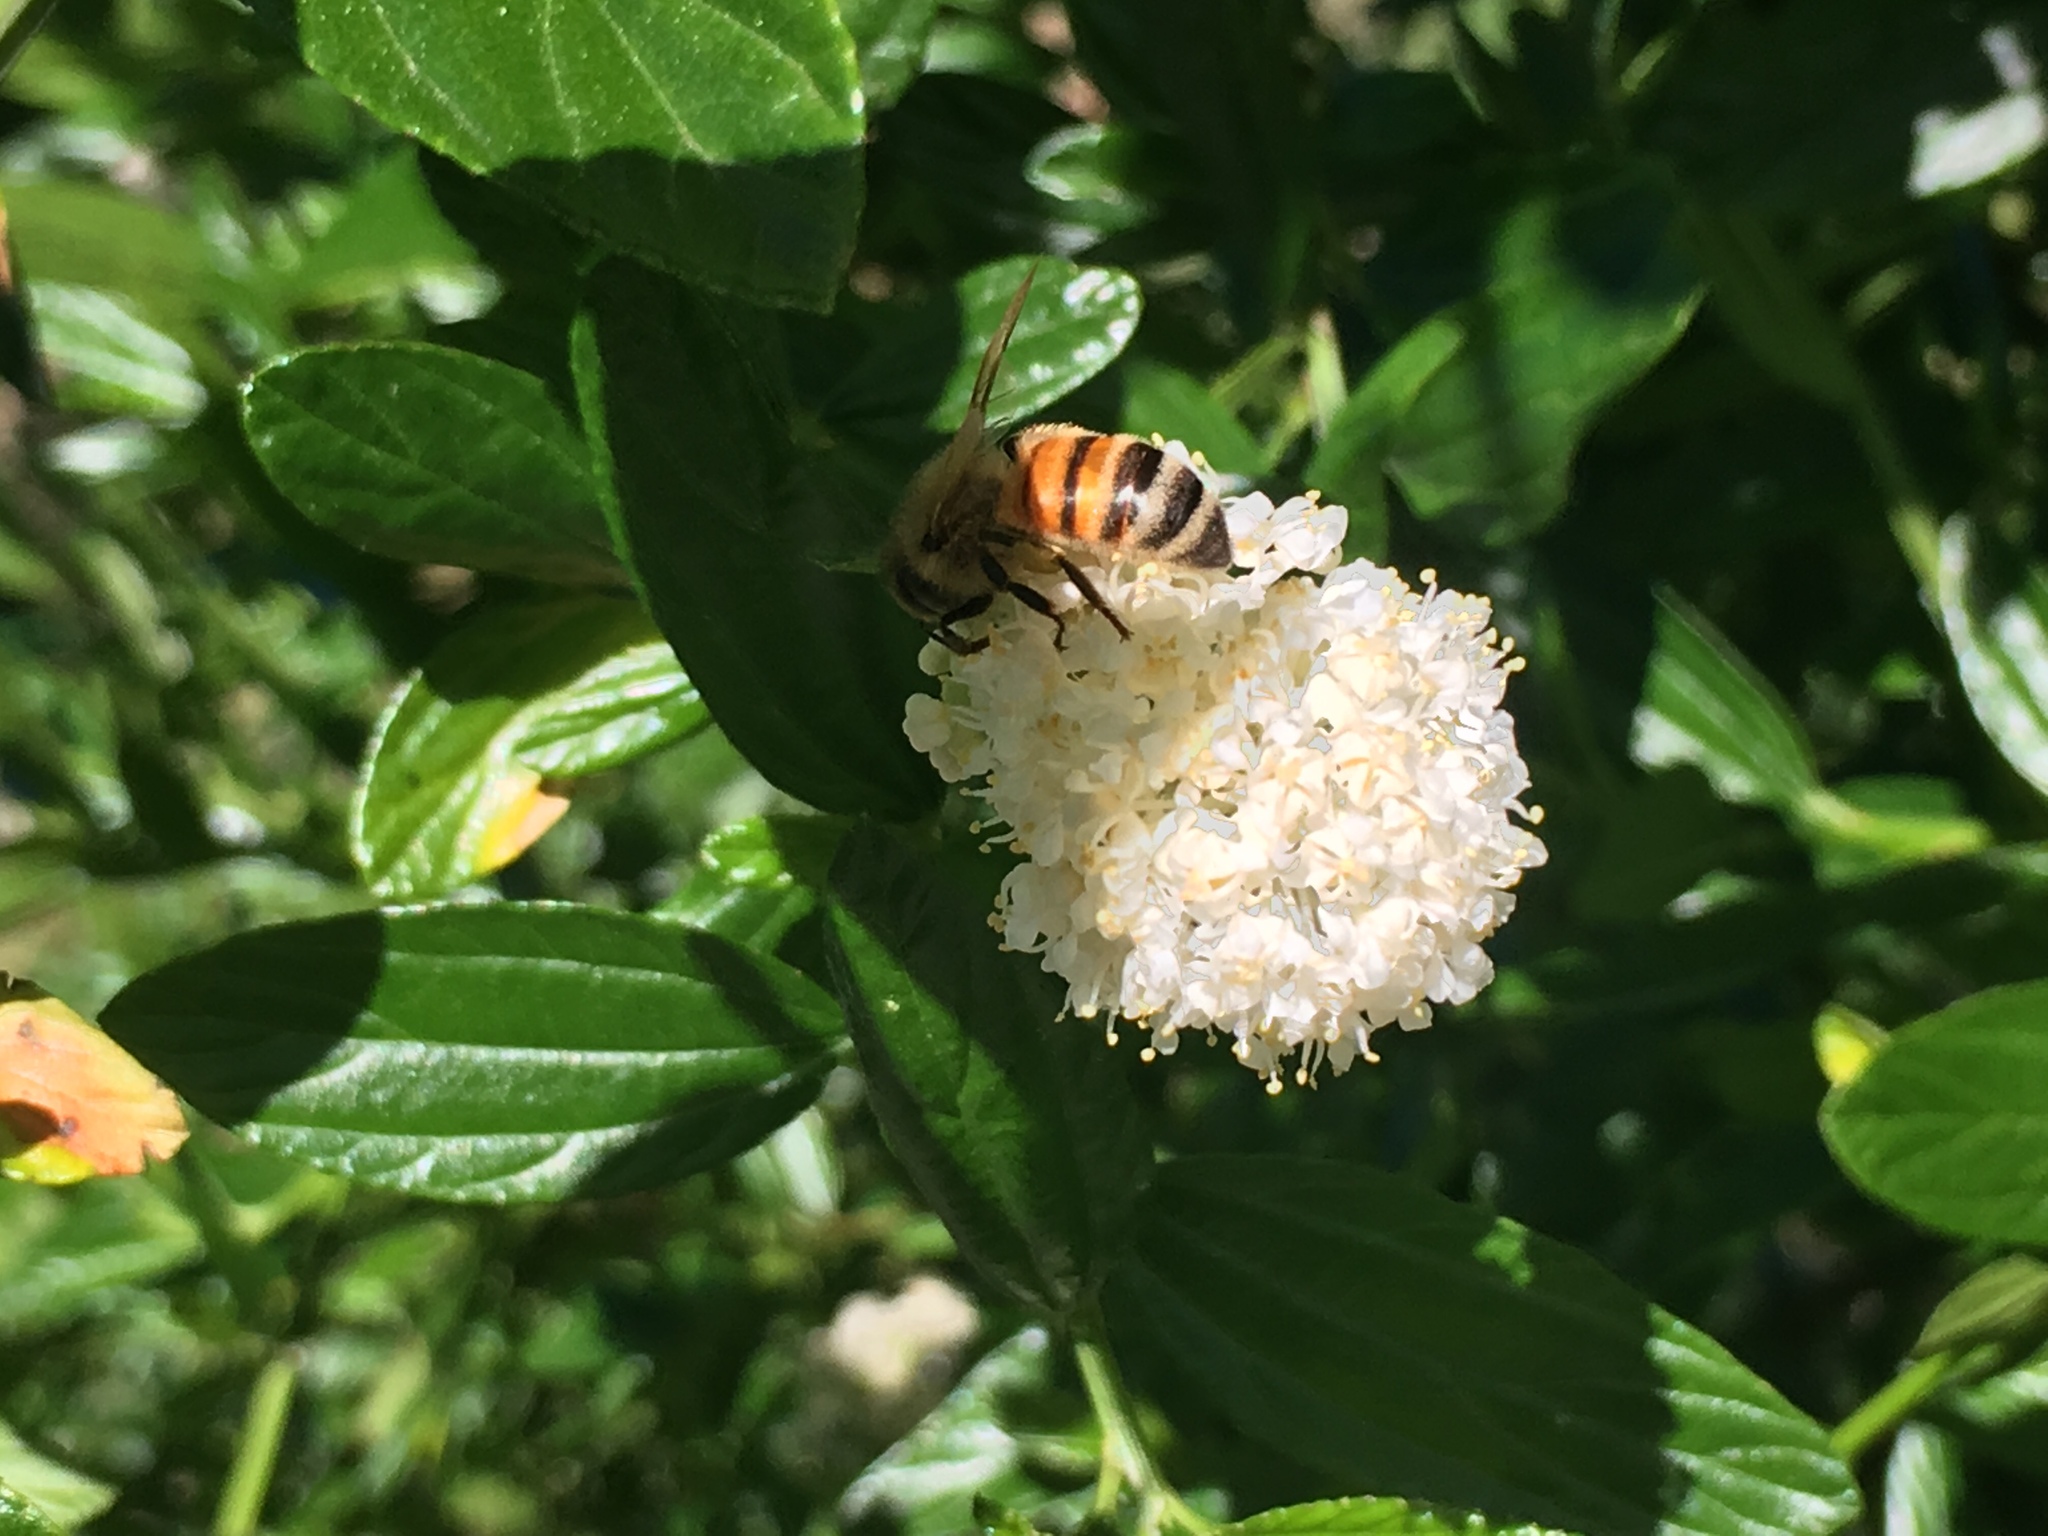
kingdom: Animalia
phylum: Arthropoda
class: Insecta
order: Hymenoptera
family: Apidae
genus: Apis
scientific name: Apis mellifera
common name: Honey bee
